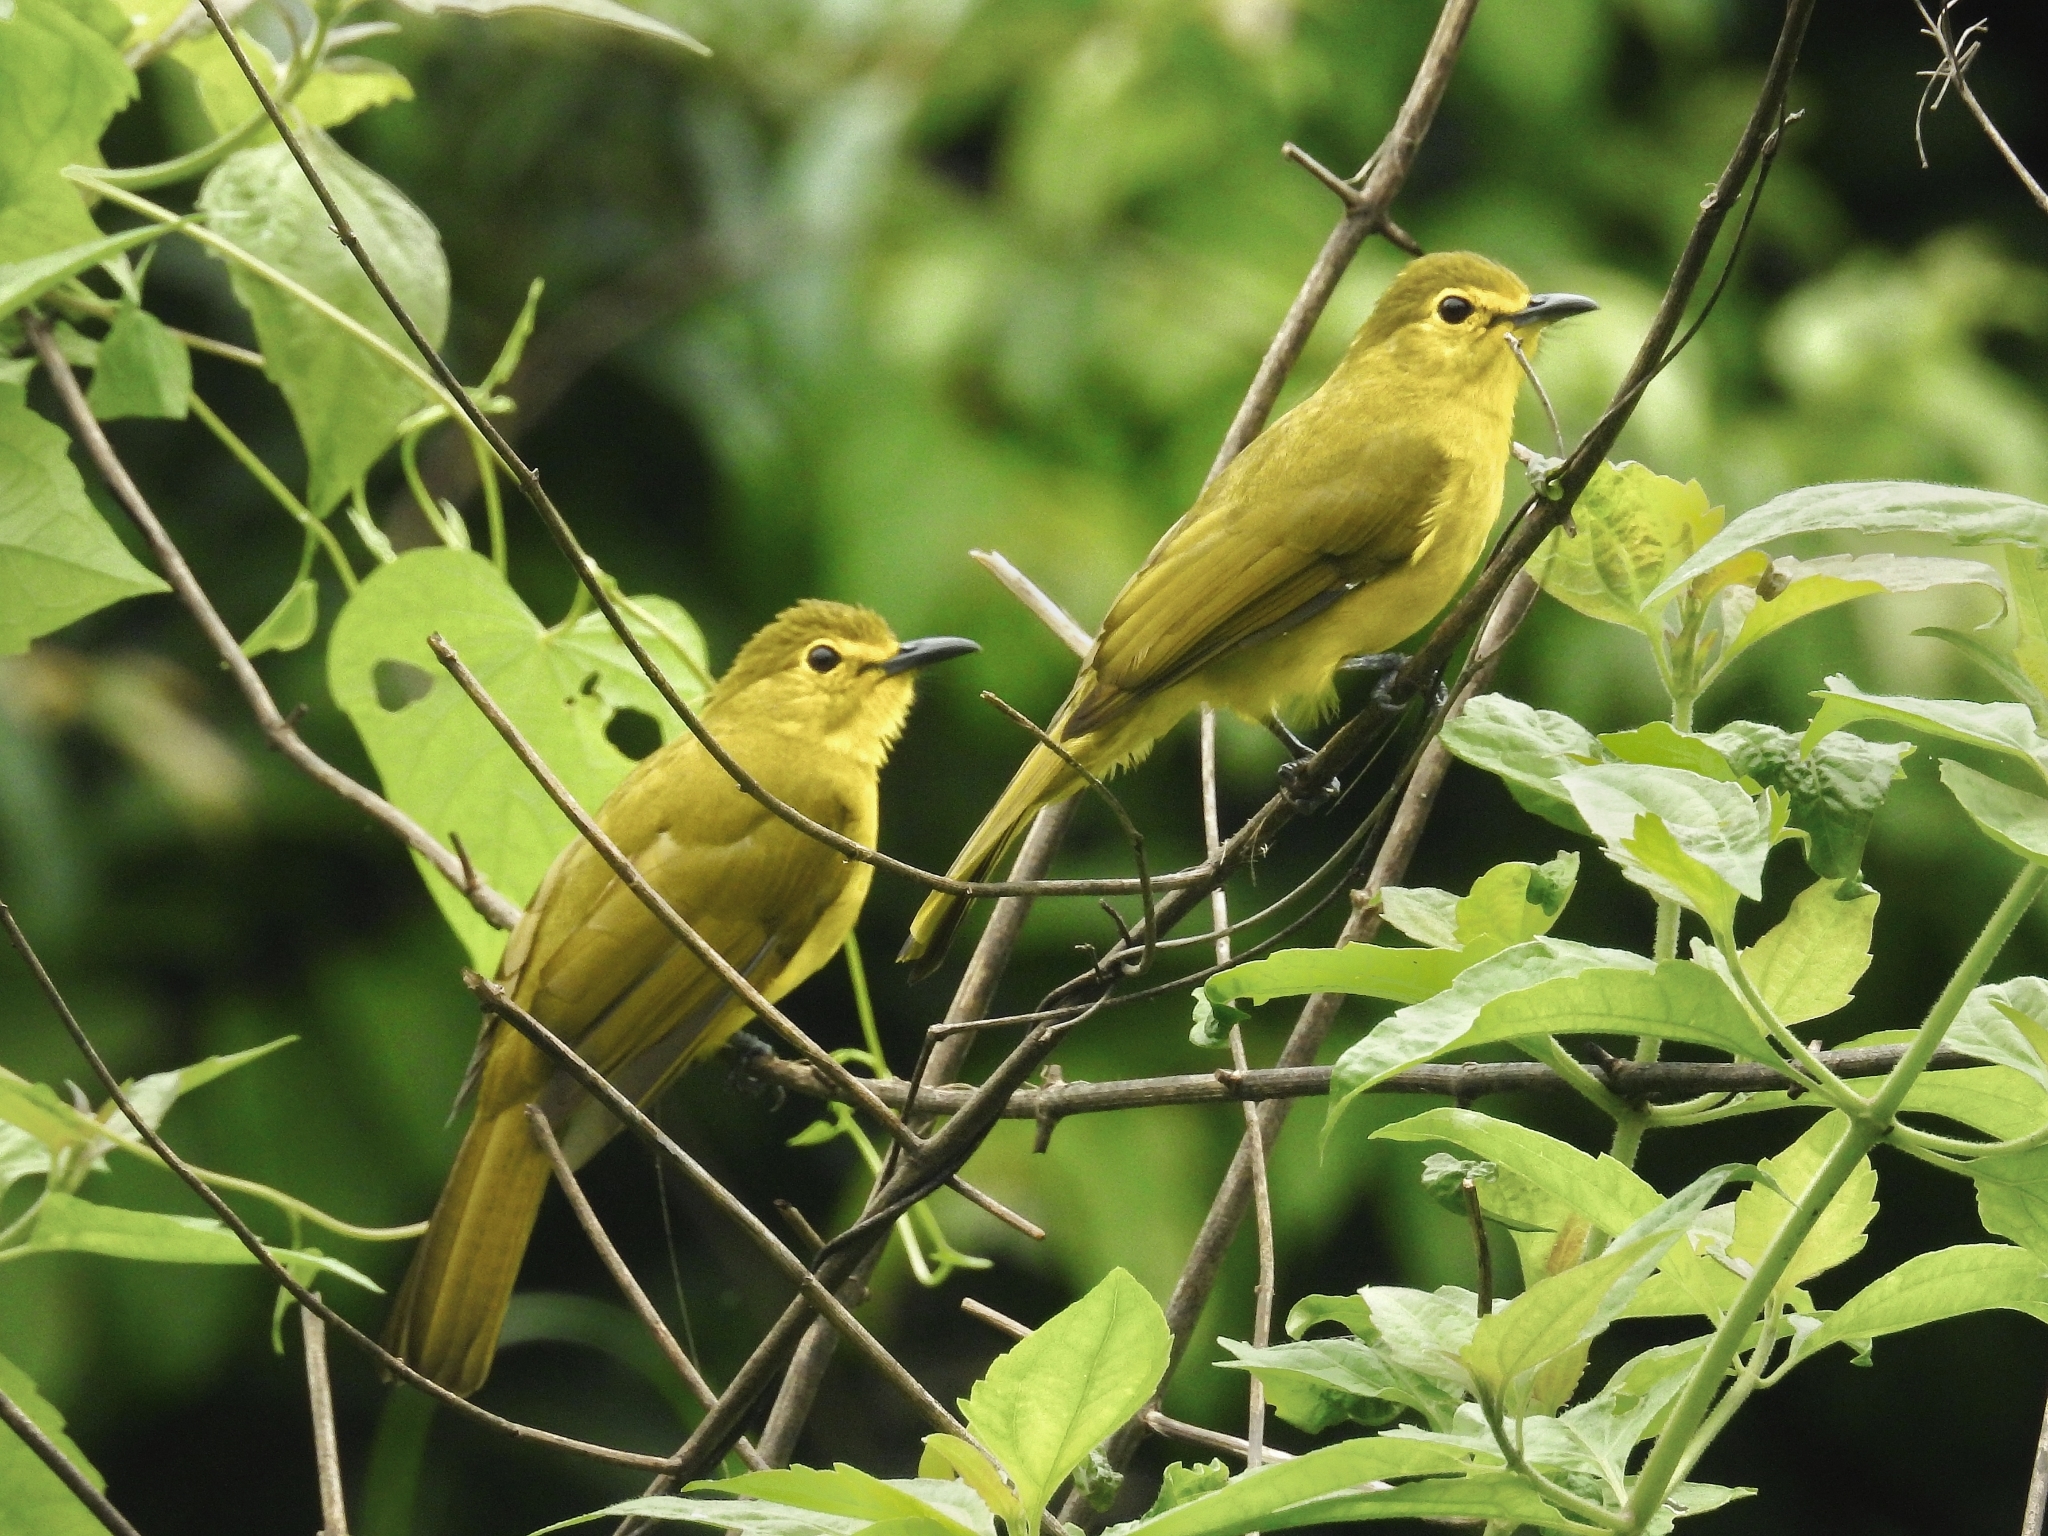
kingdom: Animalia
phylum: Chordata
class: Aves
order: Passeriformes
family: Pycnonotidae
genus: Acritillas
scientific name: Acritillas indica
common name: Yellow-browed bulbul
